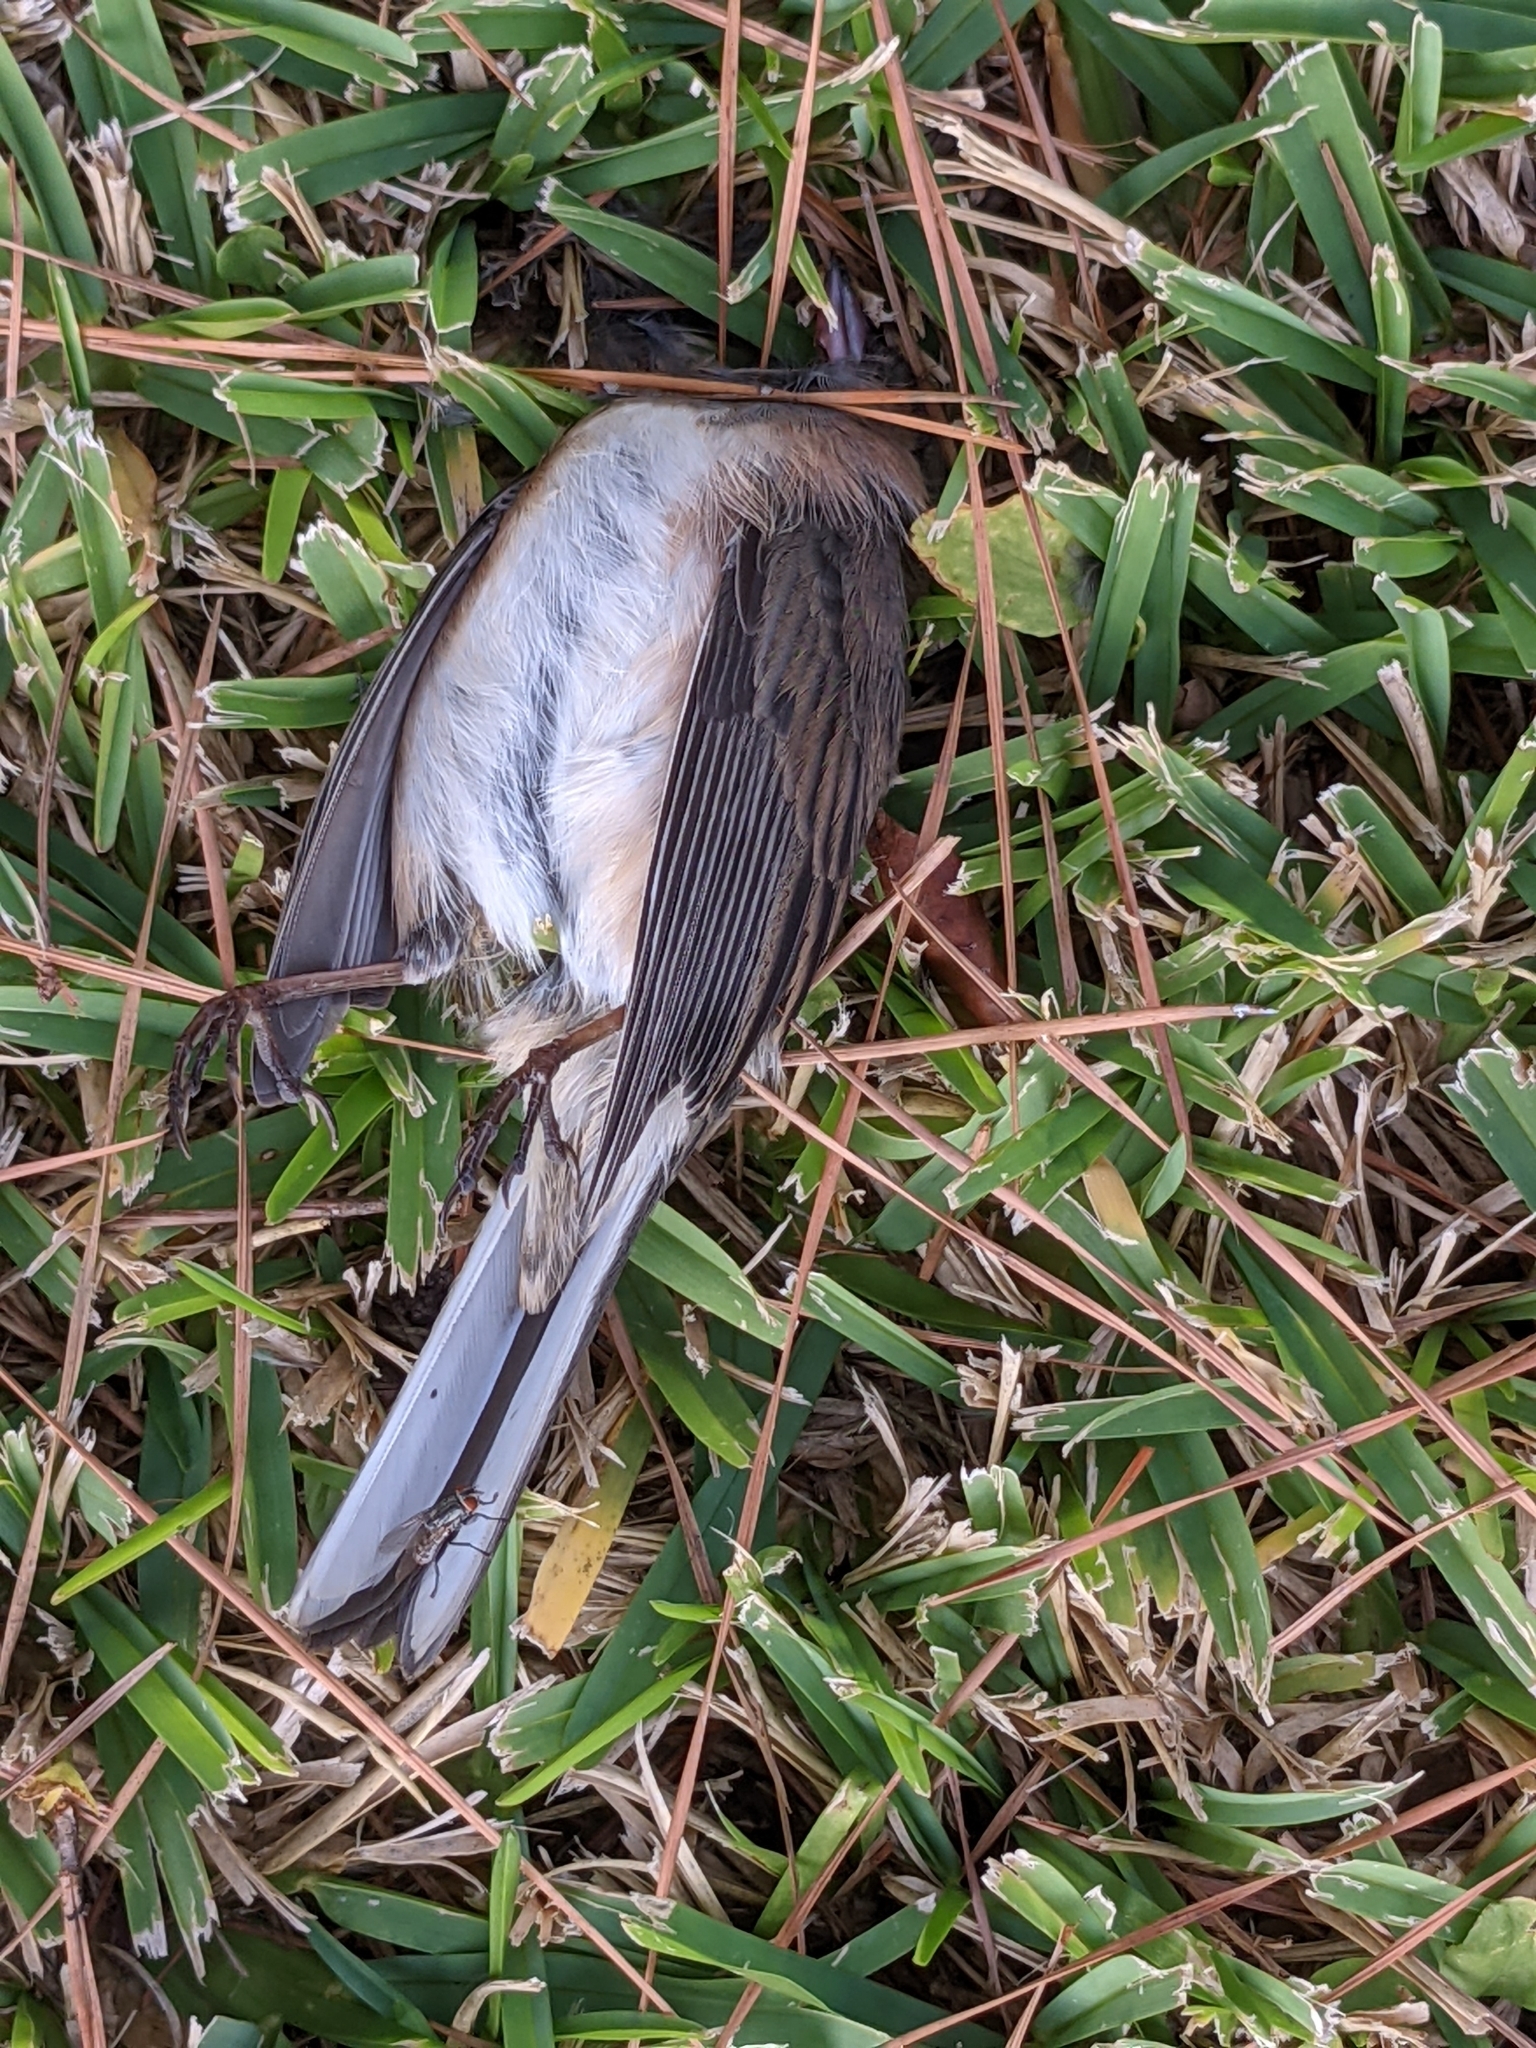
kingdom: Animalia
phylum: Chordata
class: Aves
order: Passeriformes
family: Passerellidae
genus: Junco
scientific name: Junco hyemalis
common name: Dark-eyed junco
